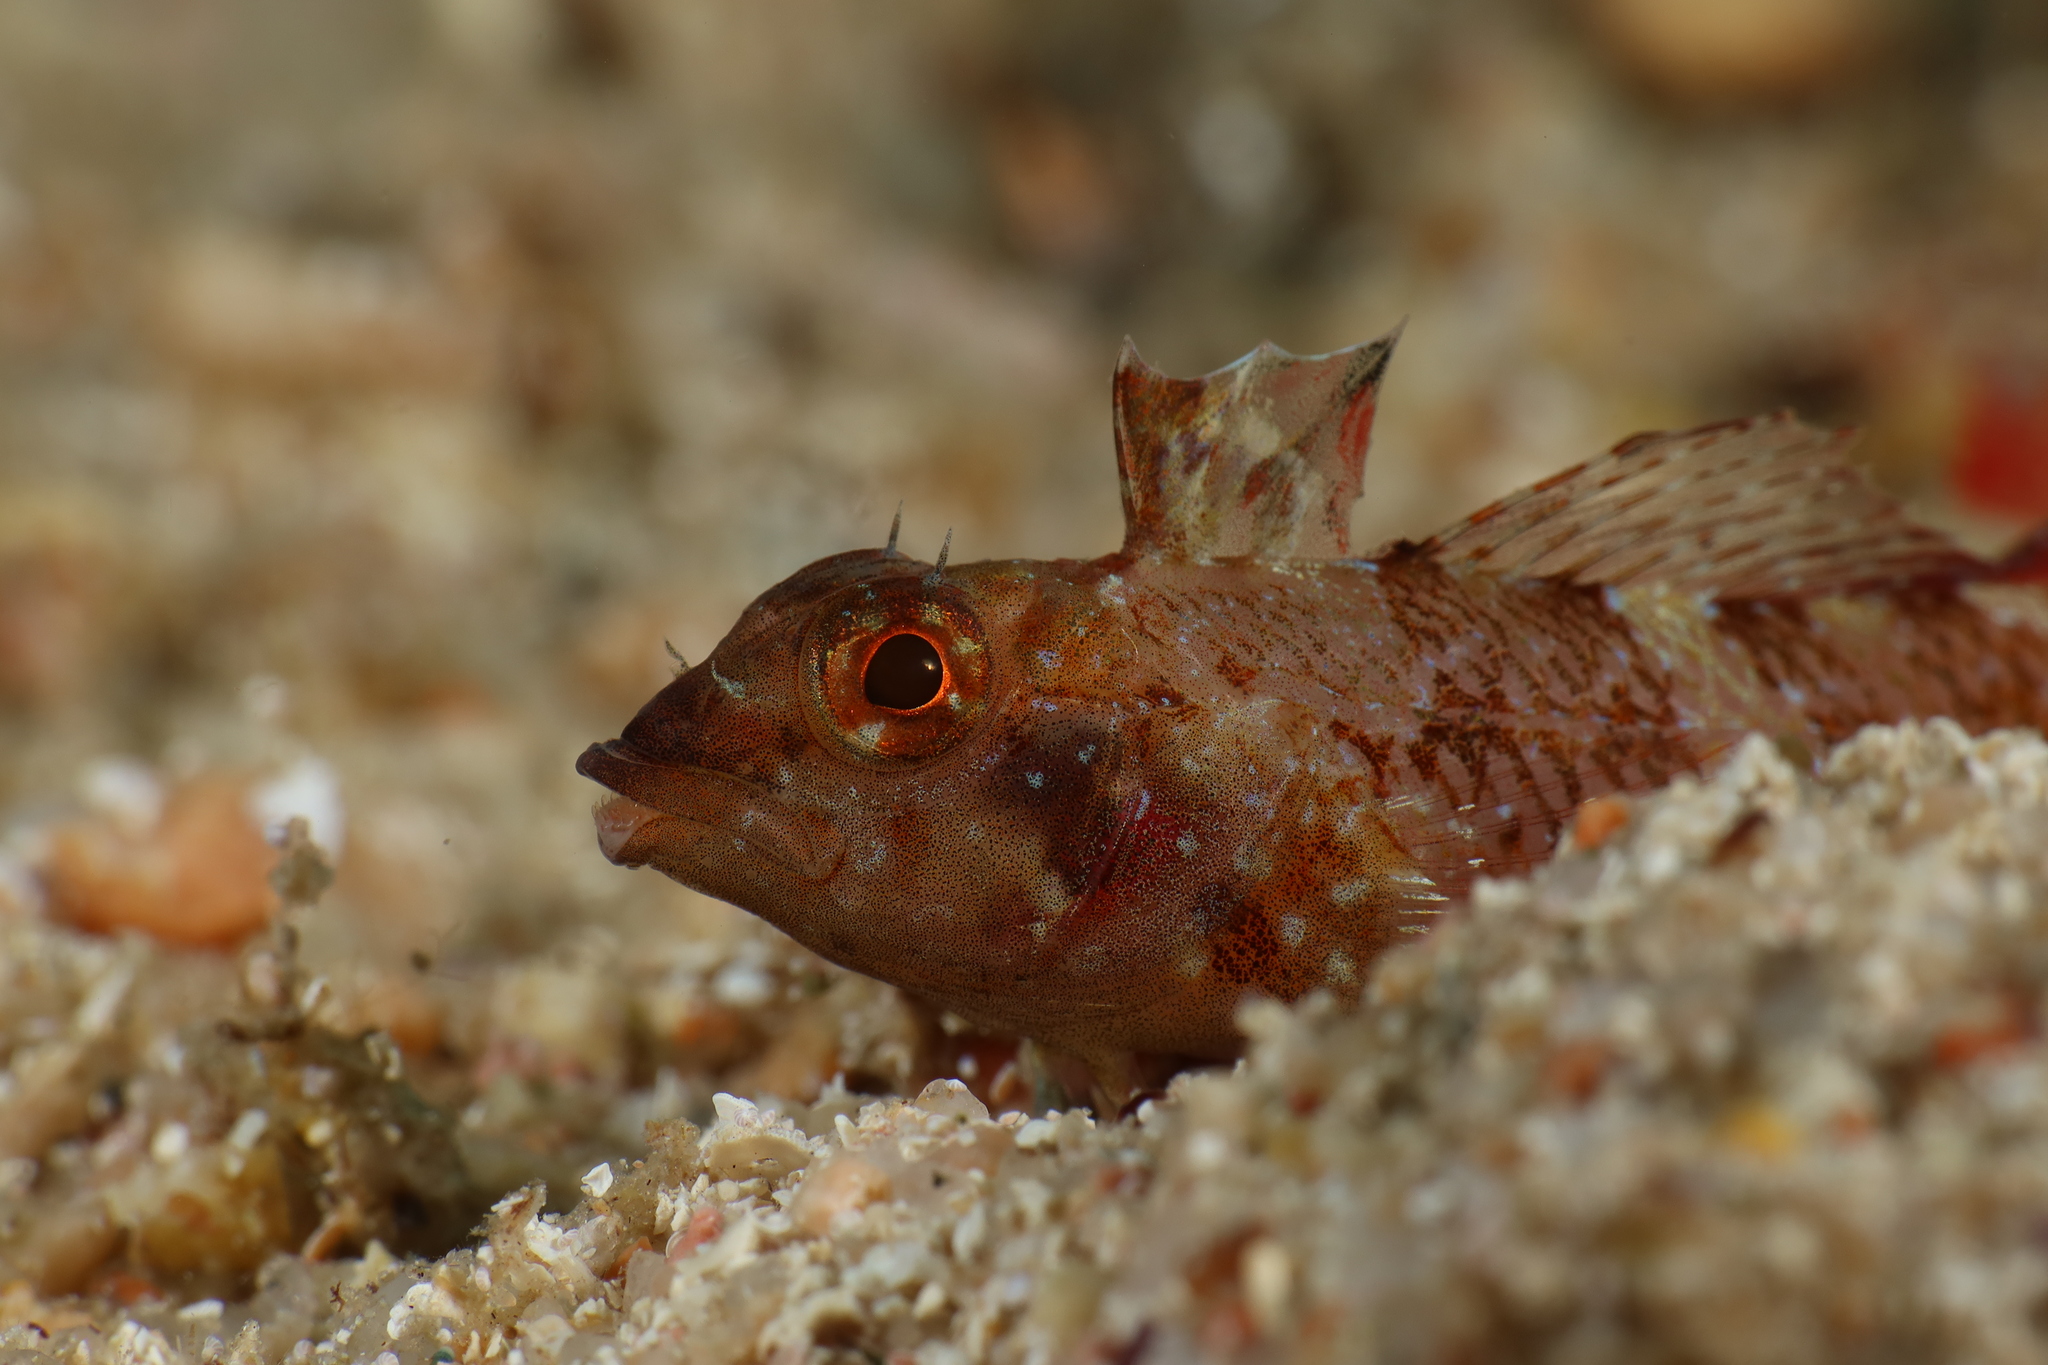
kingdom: Animalia
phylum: Chordata
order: Perciformes
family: Tripterygiidae
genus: Tripterygion
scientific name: Tripterygion tripteronotum
